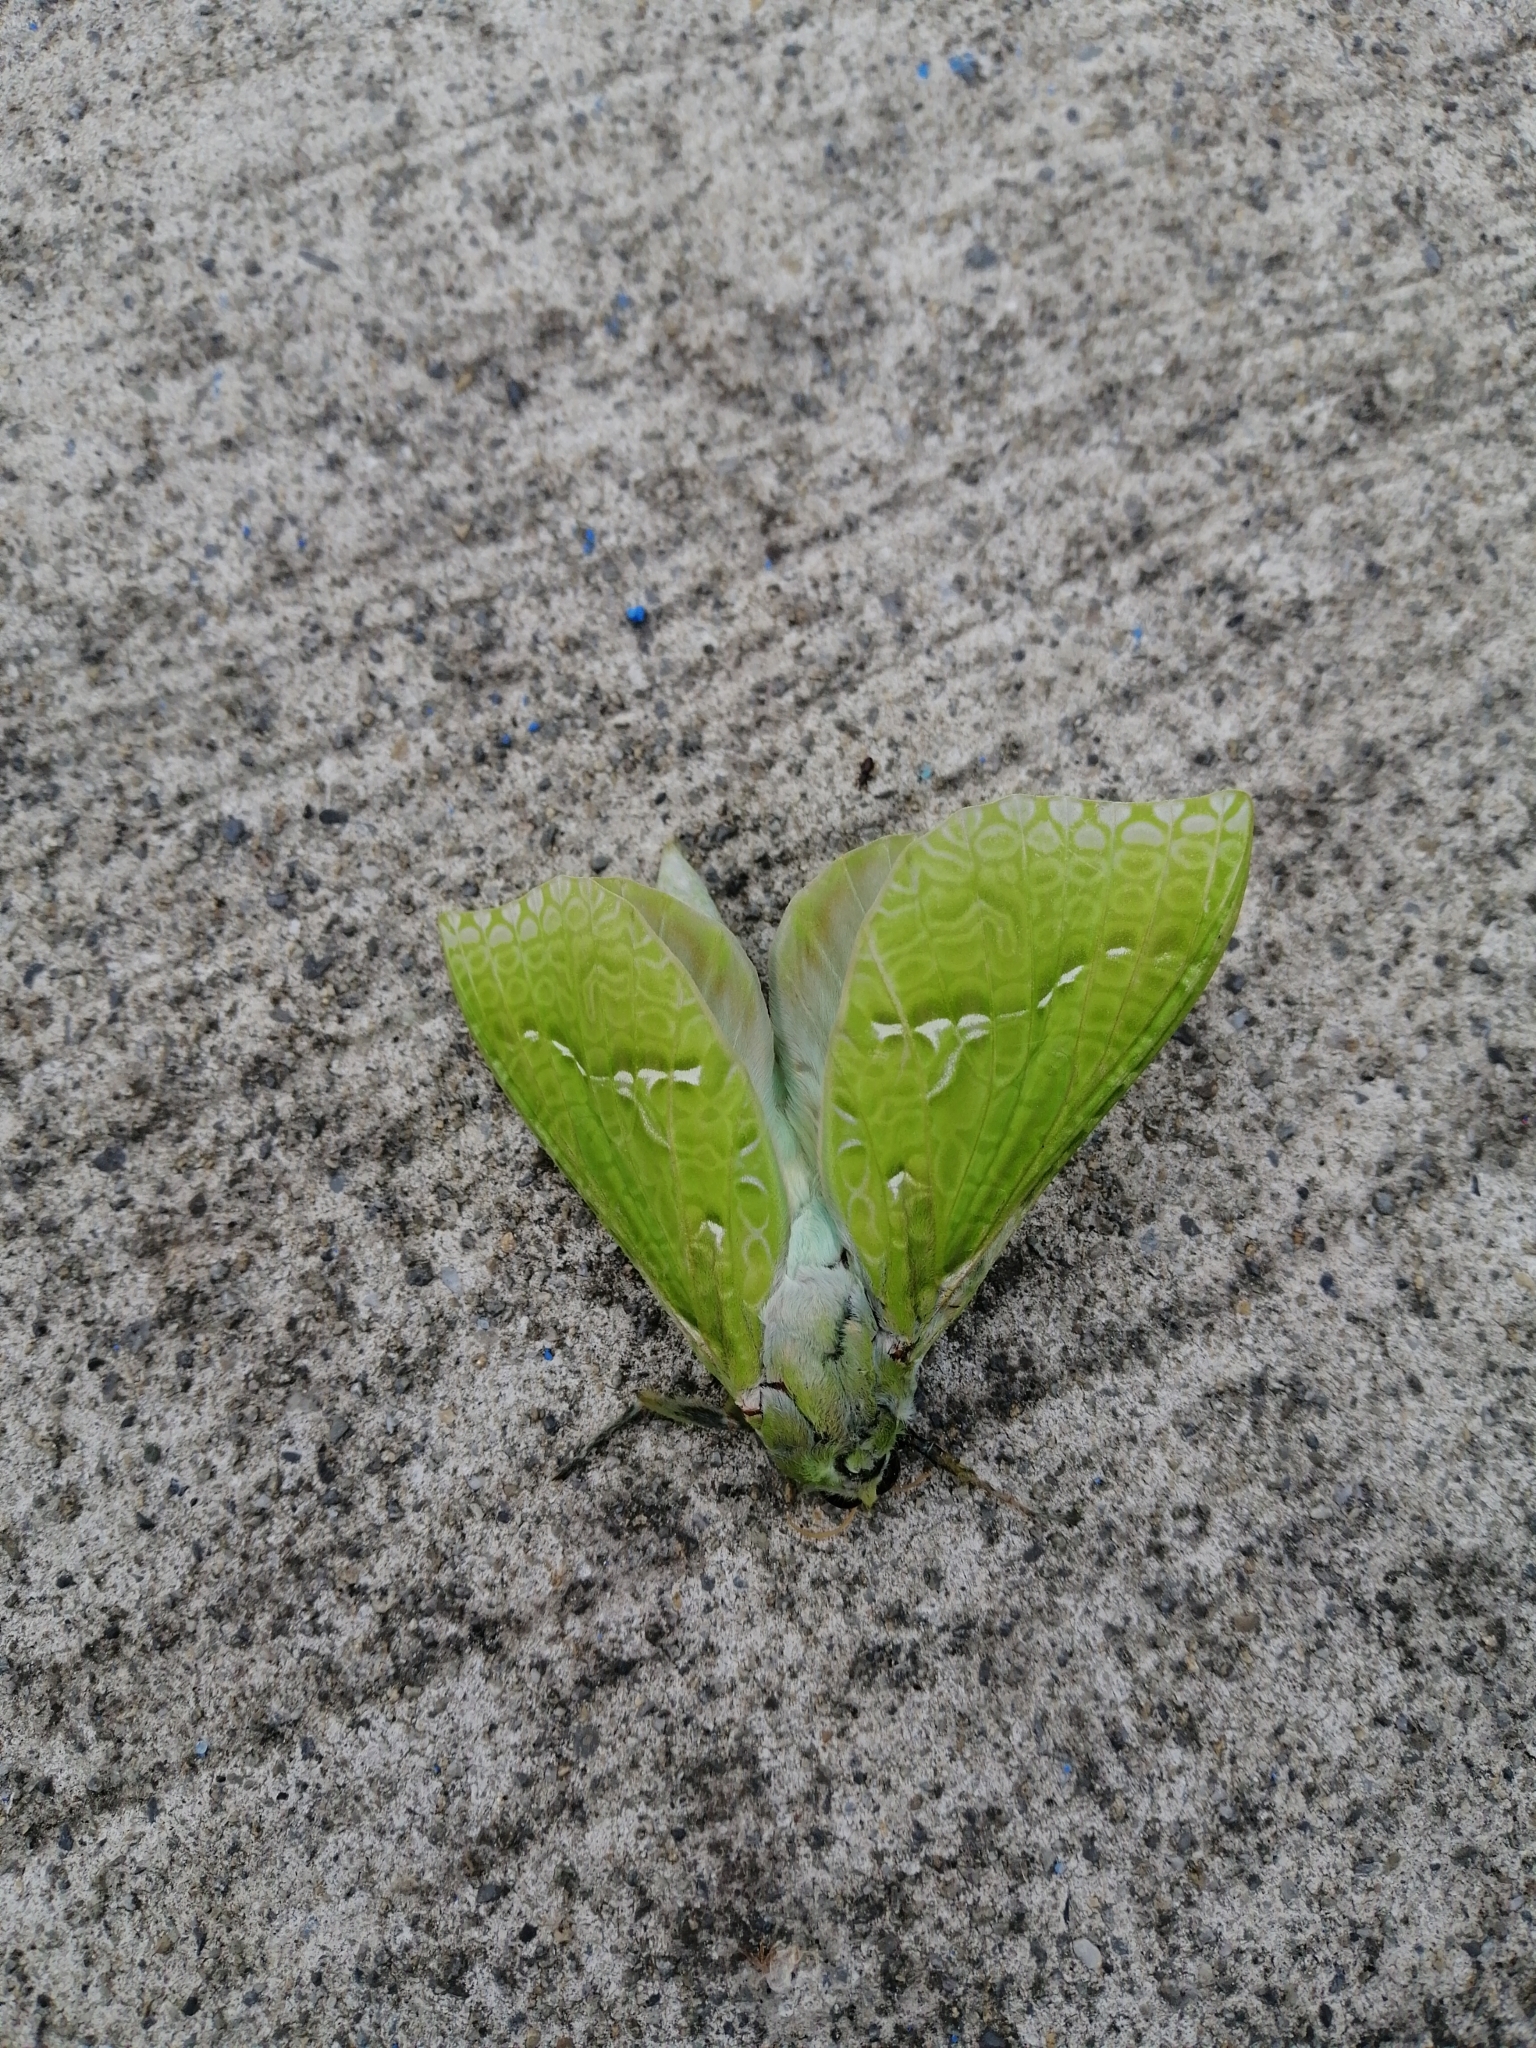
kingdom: Animalia
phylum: Arthropoda
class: Insecta
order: Lepidoptera
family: Hepialidae
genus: Aenetus
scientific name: Aenetus virescens
